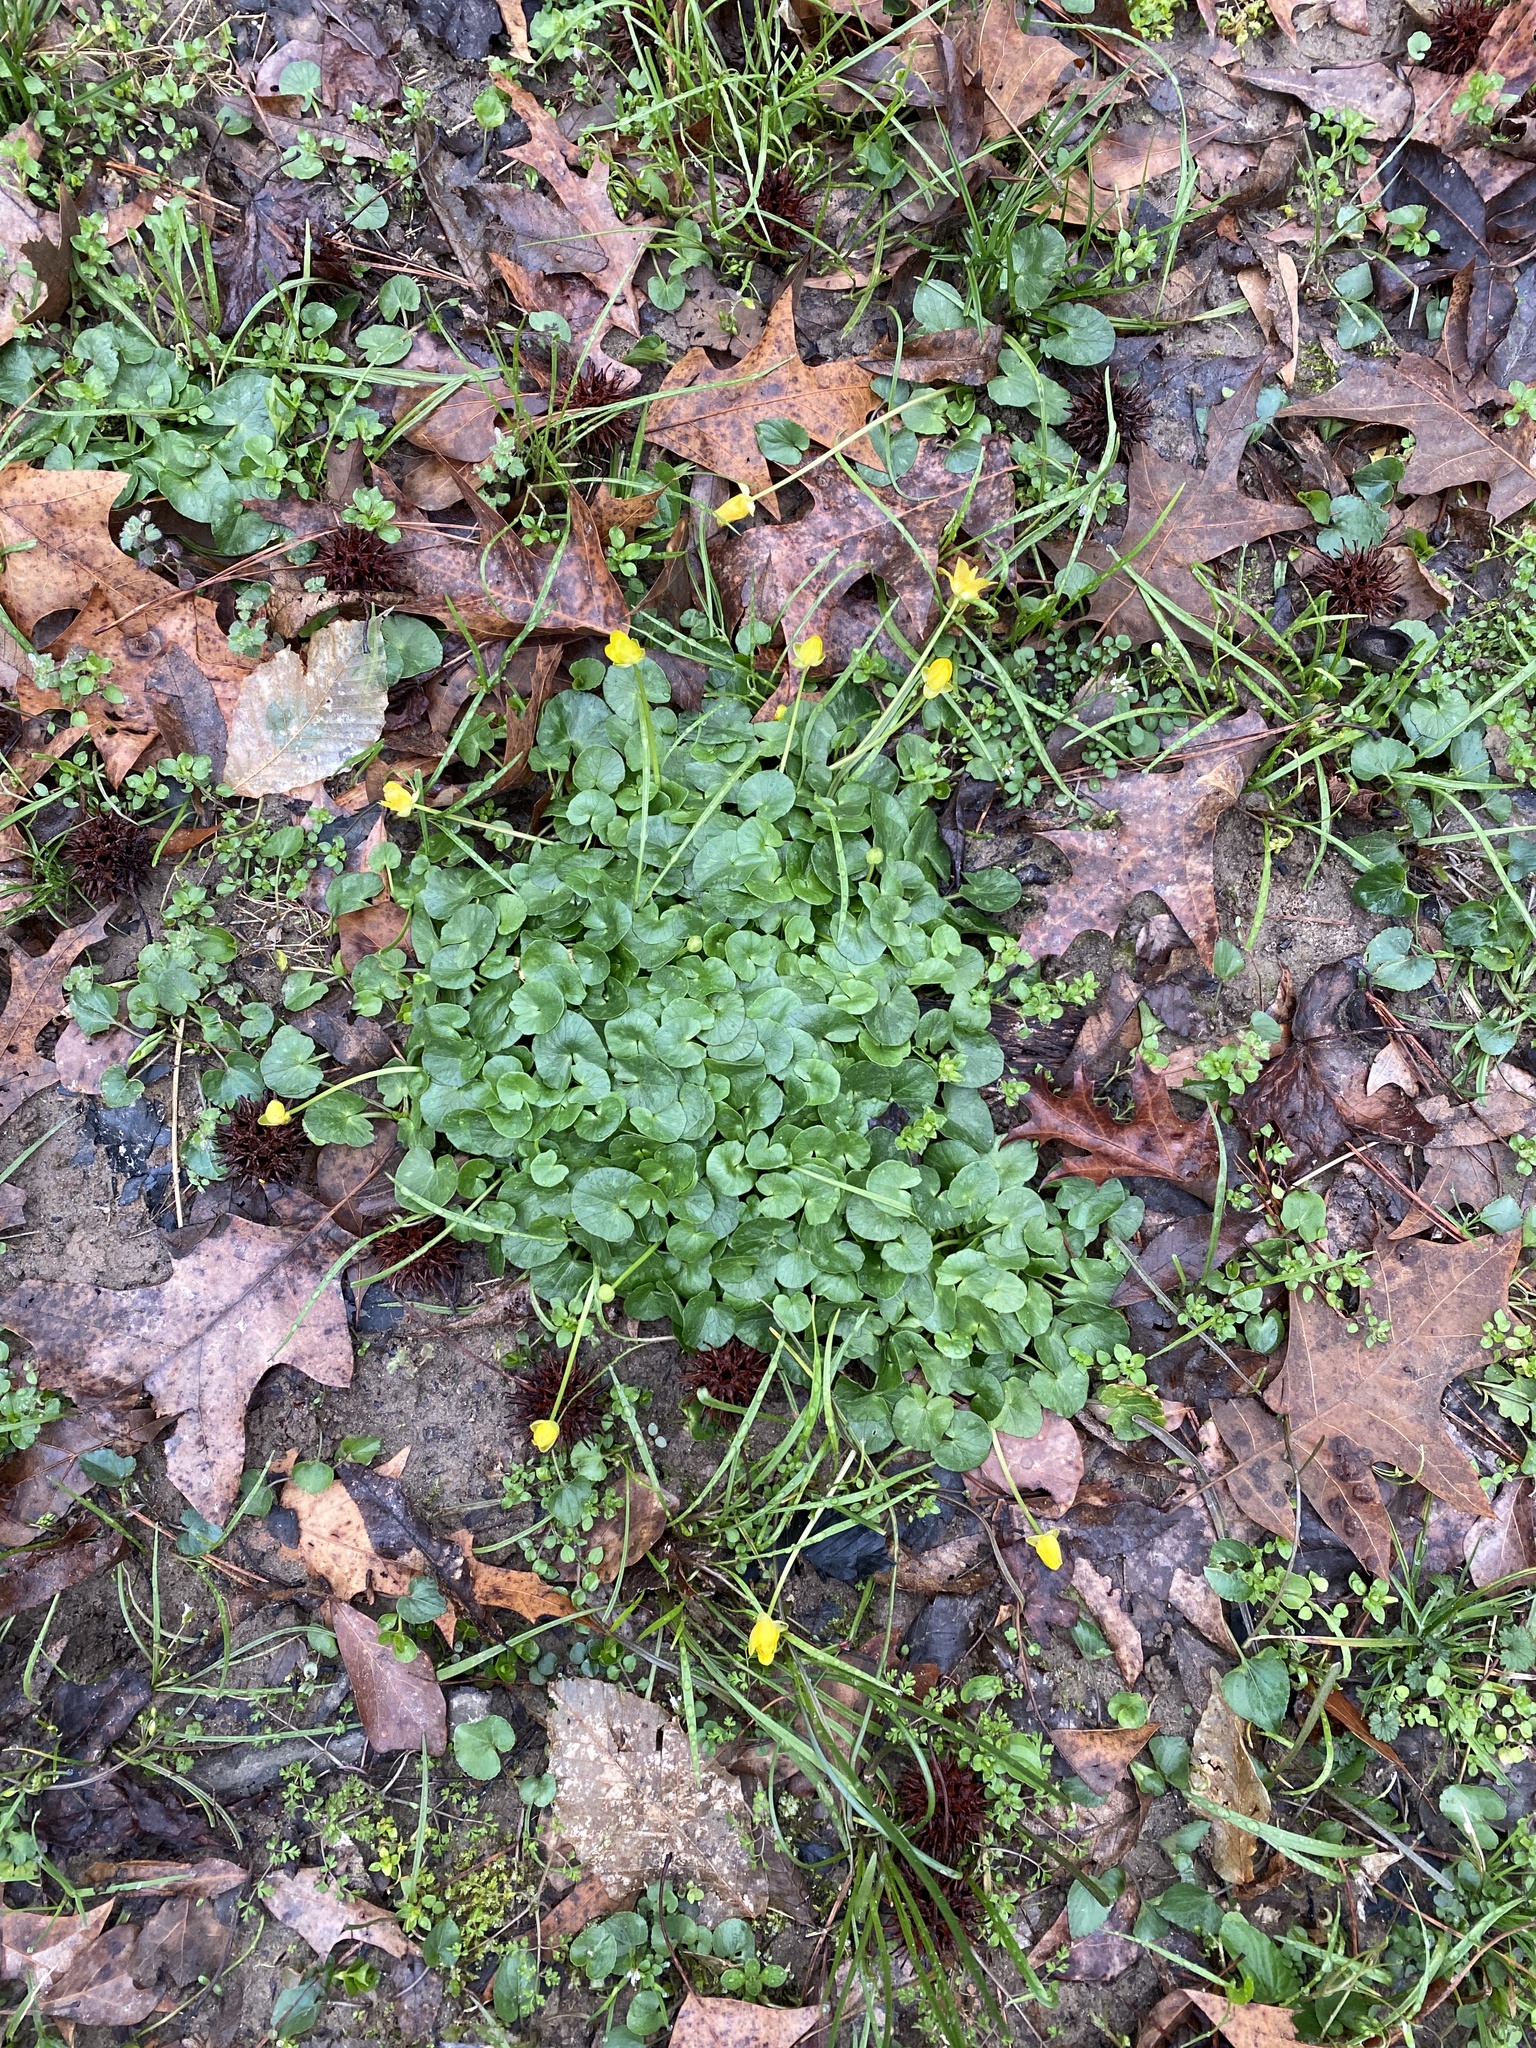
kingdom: Plantae
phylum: Tracheophyta
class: Magnoliopsida
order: Ranunculales
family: Ranunculaceae
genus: Ficaria
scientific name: Ficaria verna
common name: Lesser celandine
